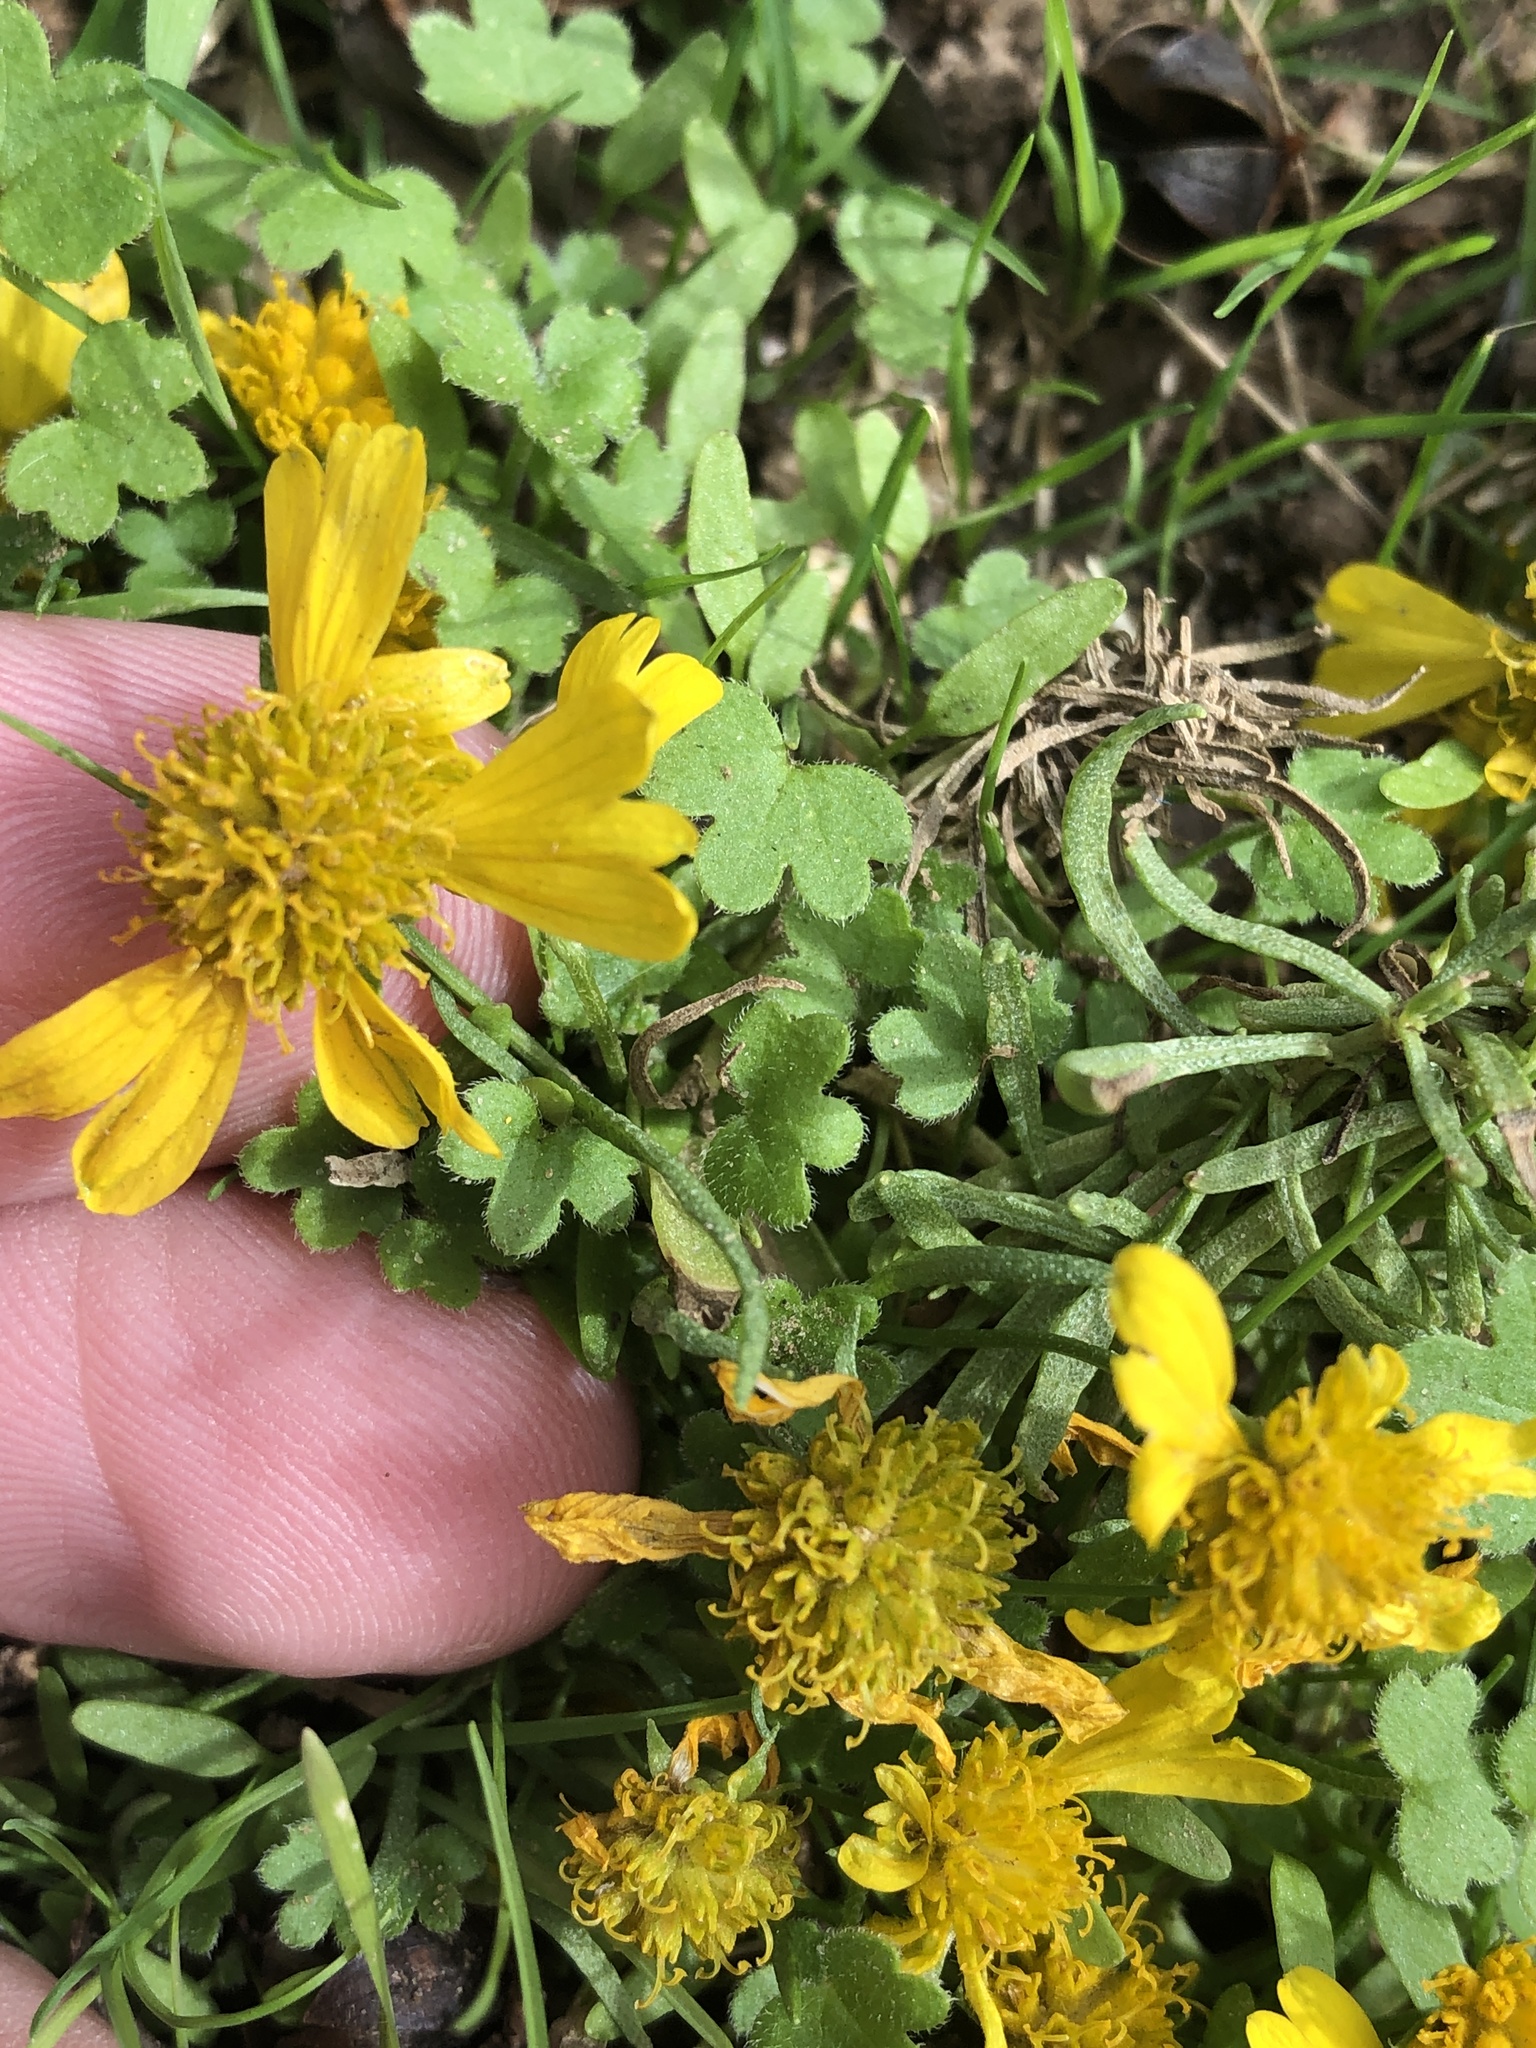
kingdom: Plantae
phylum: Tracheophyta
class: Magnoliopsida
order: Asterales
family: Asteraceae
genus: Helenium
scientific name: Helenium amarum
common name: Bitter sneezeweed
